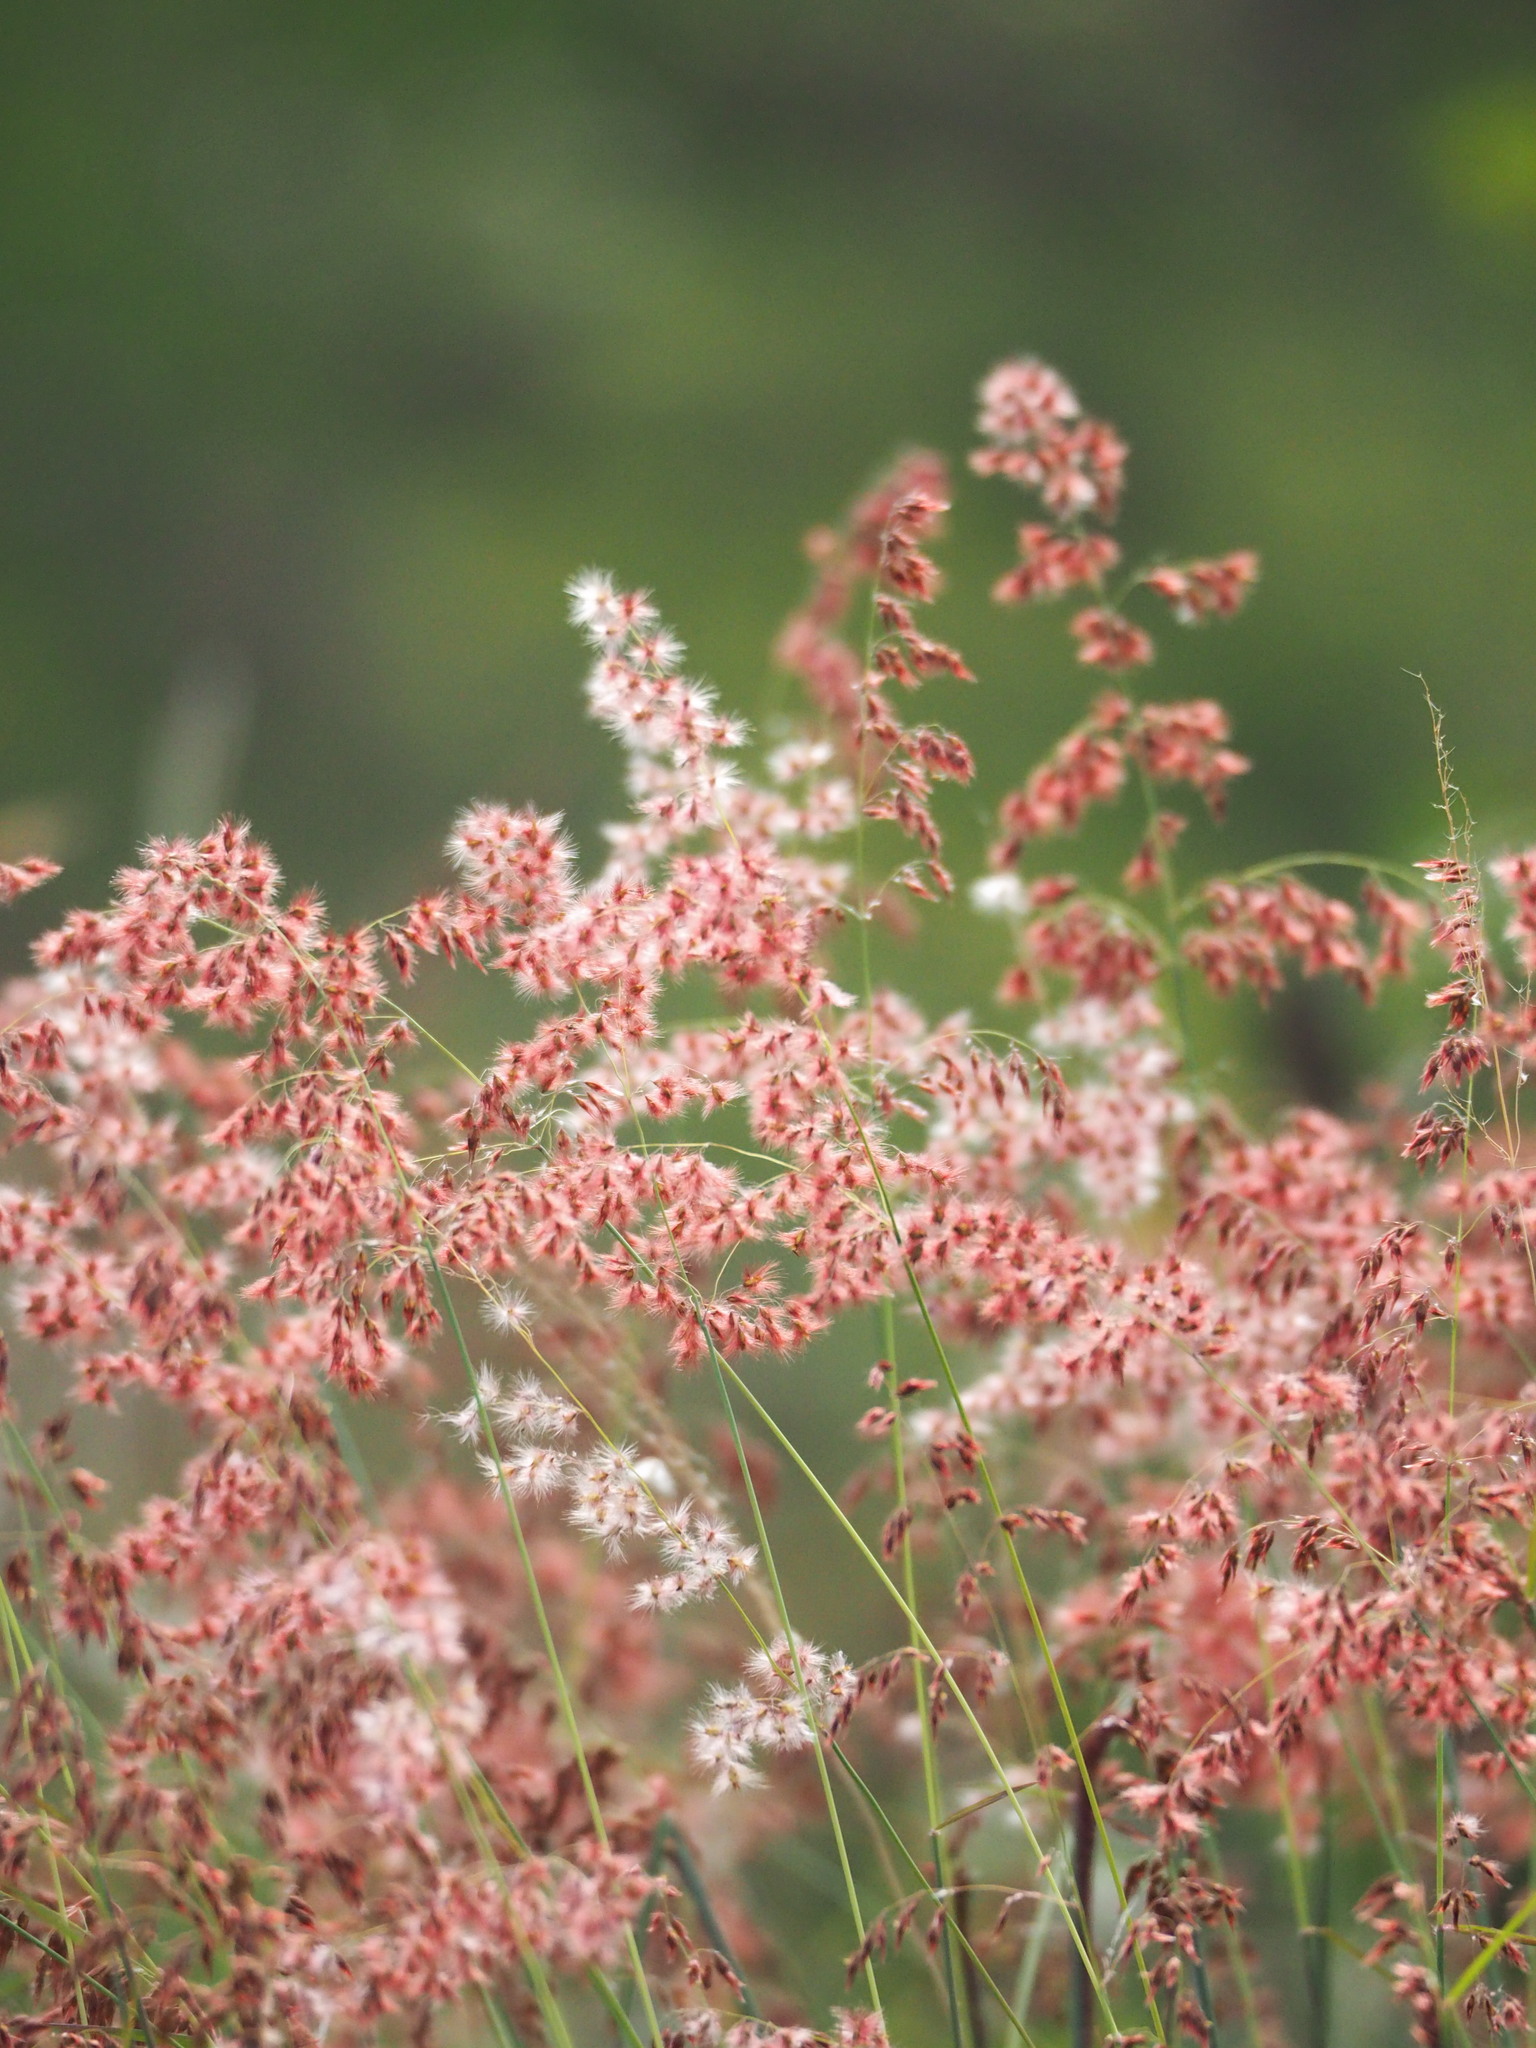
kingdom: Plantae
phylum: Tracheophyta
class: Liliopsida
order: Poales
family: Poaceae
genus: Melinis
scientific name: Melinis repens
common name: Rose natal grass
